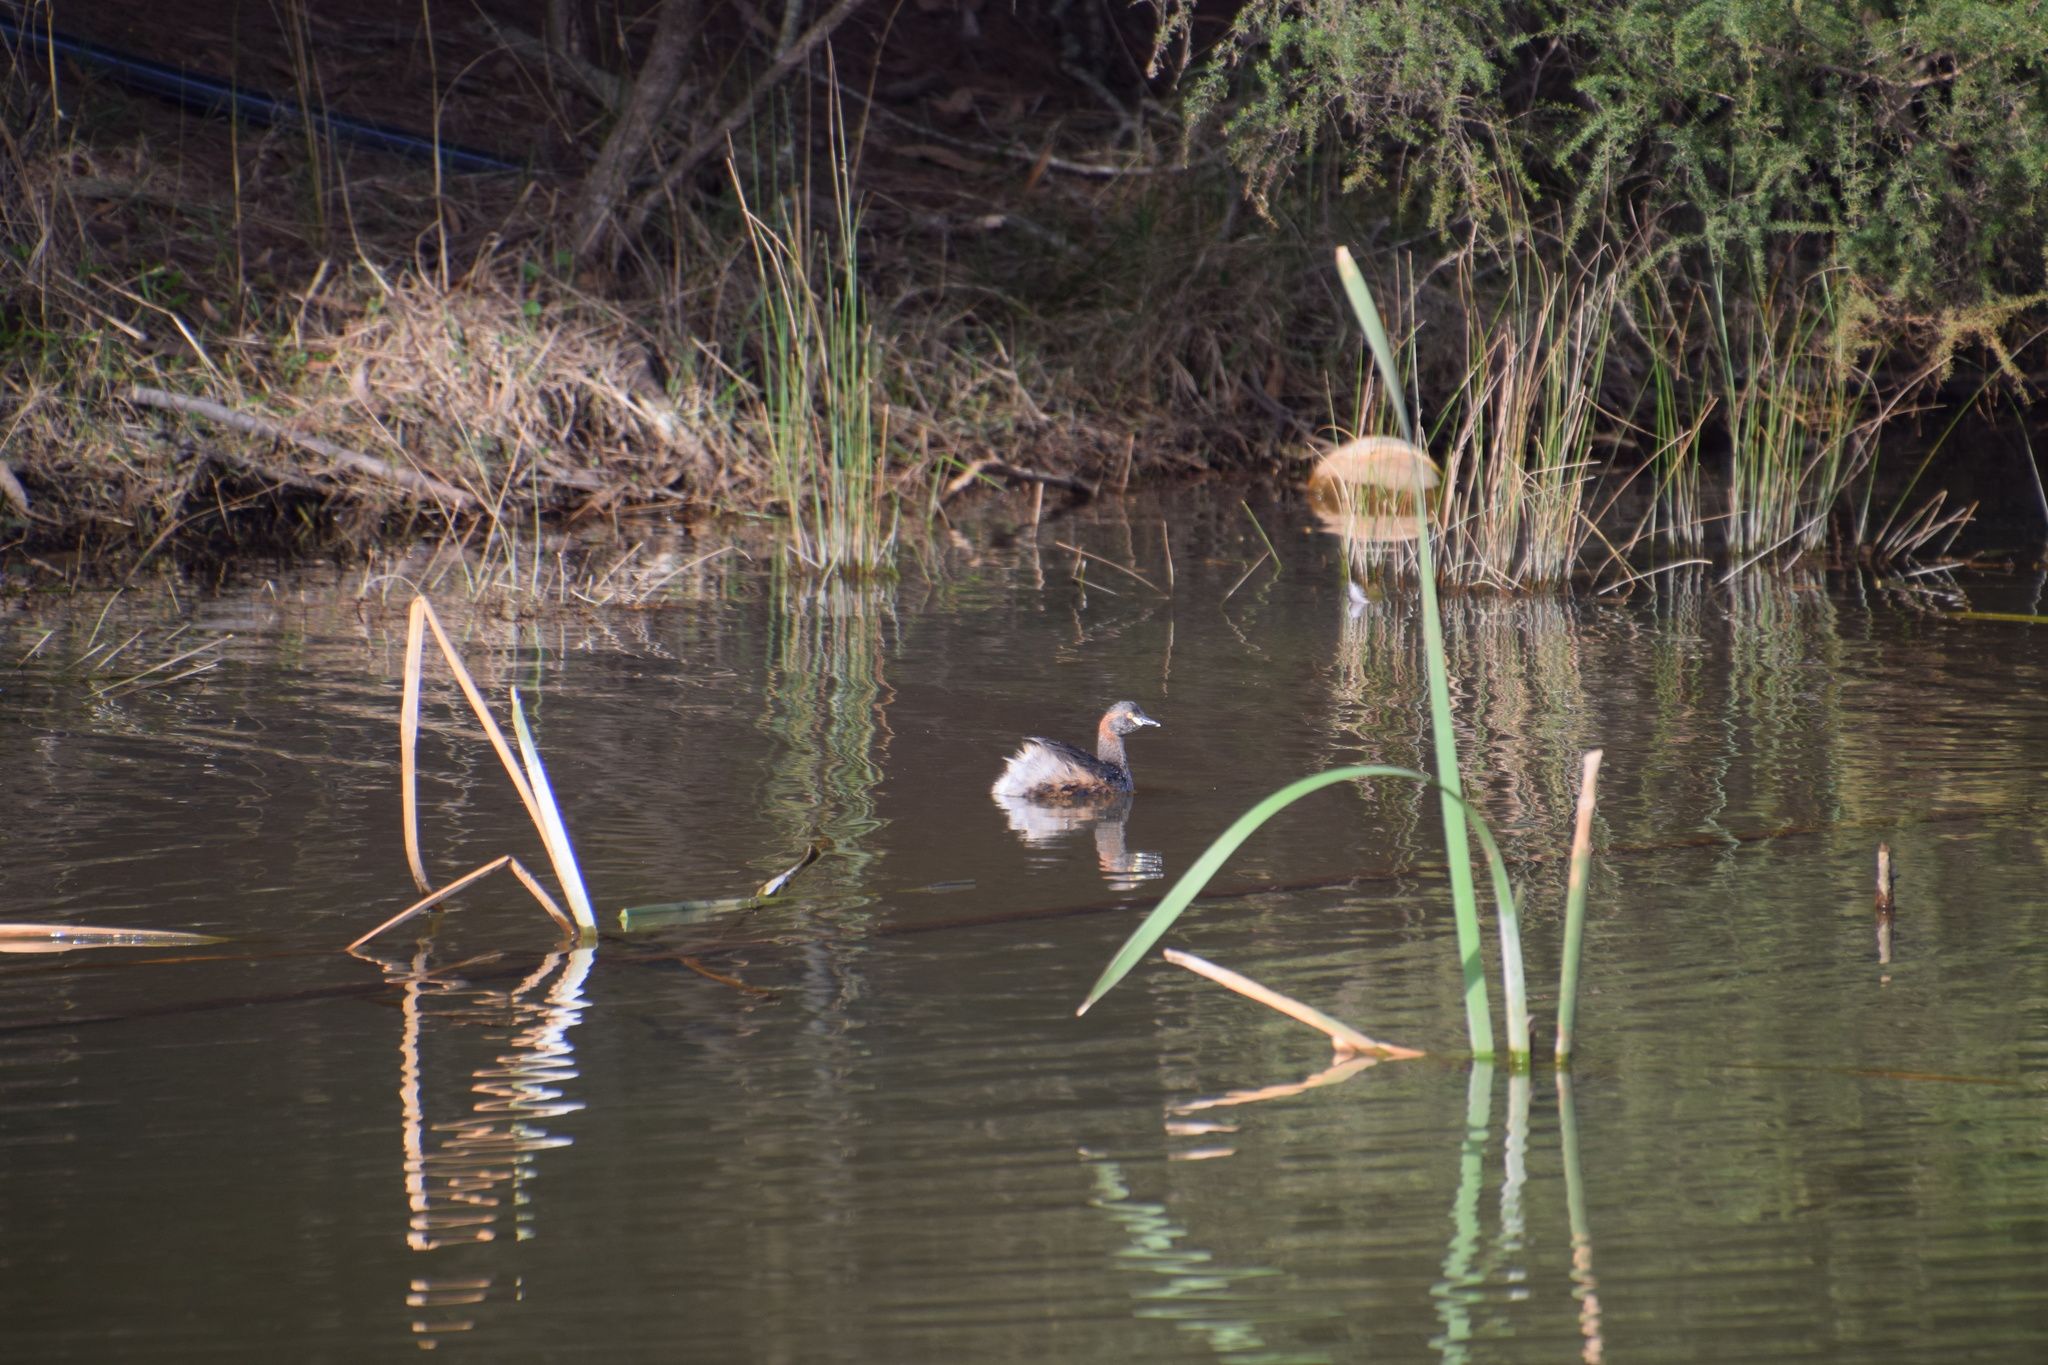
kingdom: Animalia
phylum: Chordata
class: Aves
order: Podicipediformes
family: Podicipedidae
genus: Tachybaptus
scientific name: Tachybaptus novaehollandiae
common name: Australasian grebe
